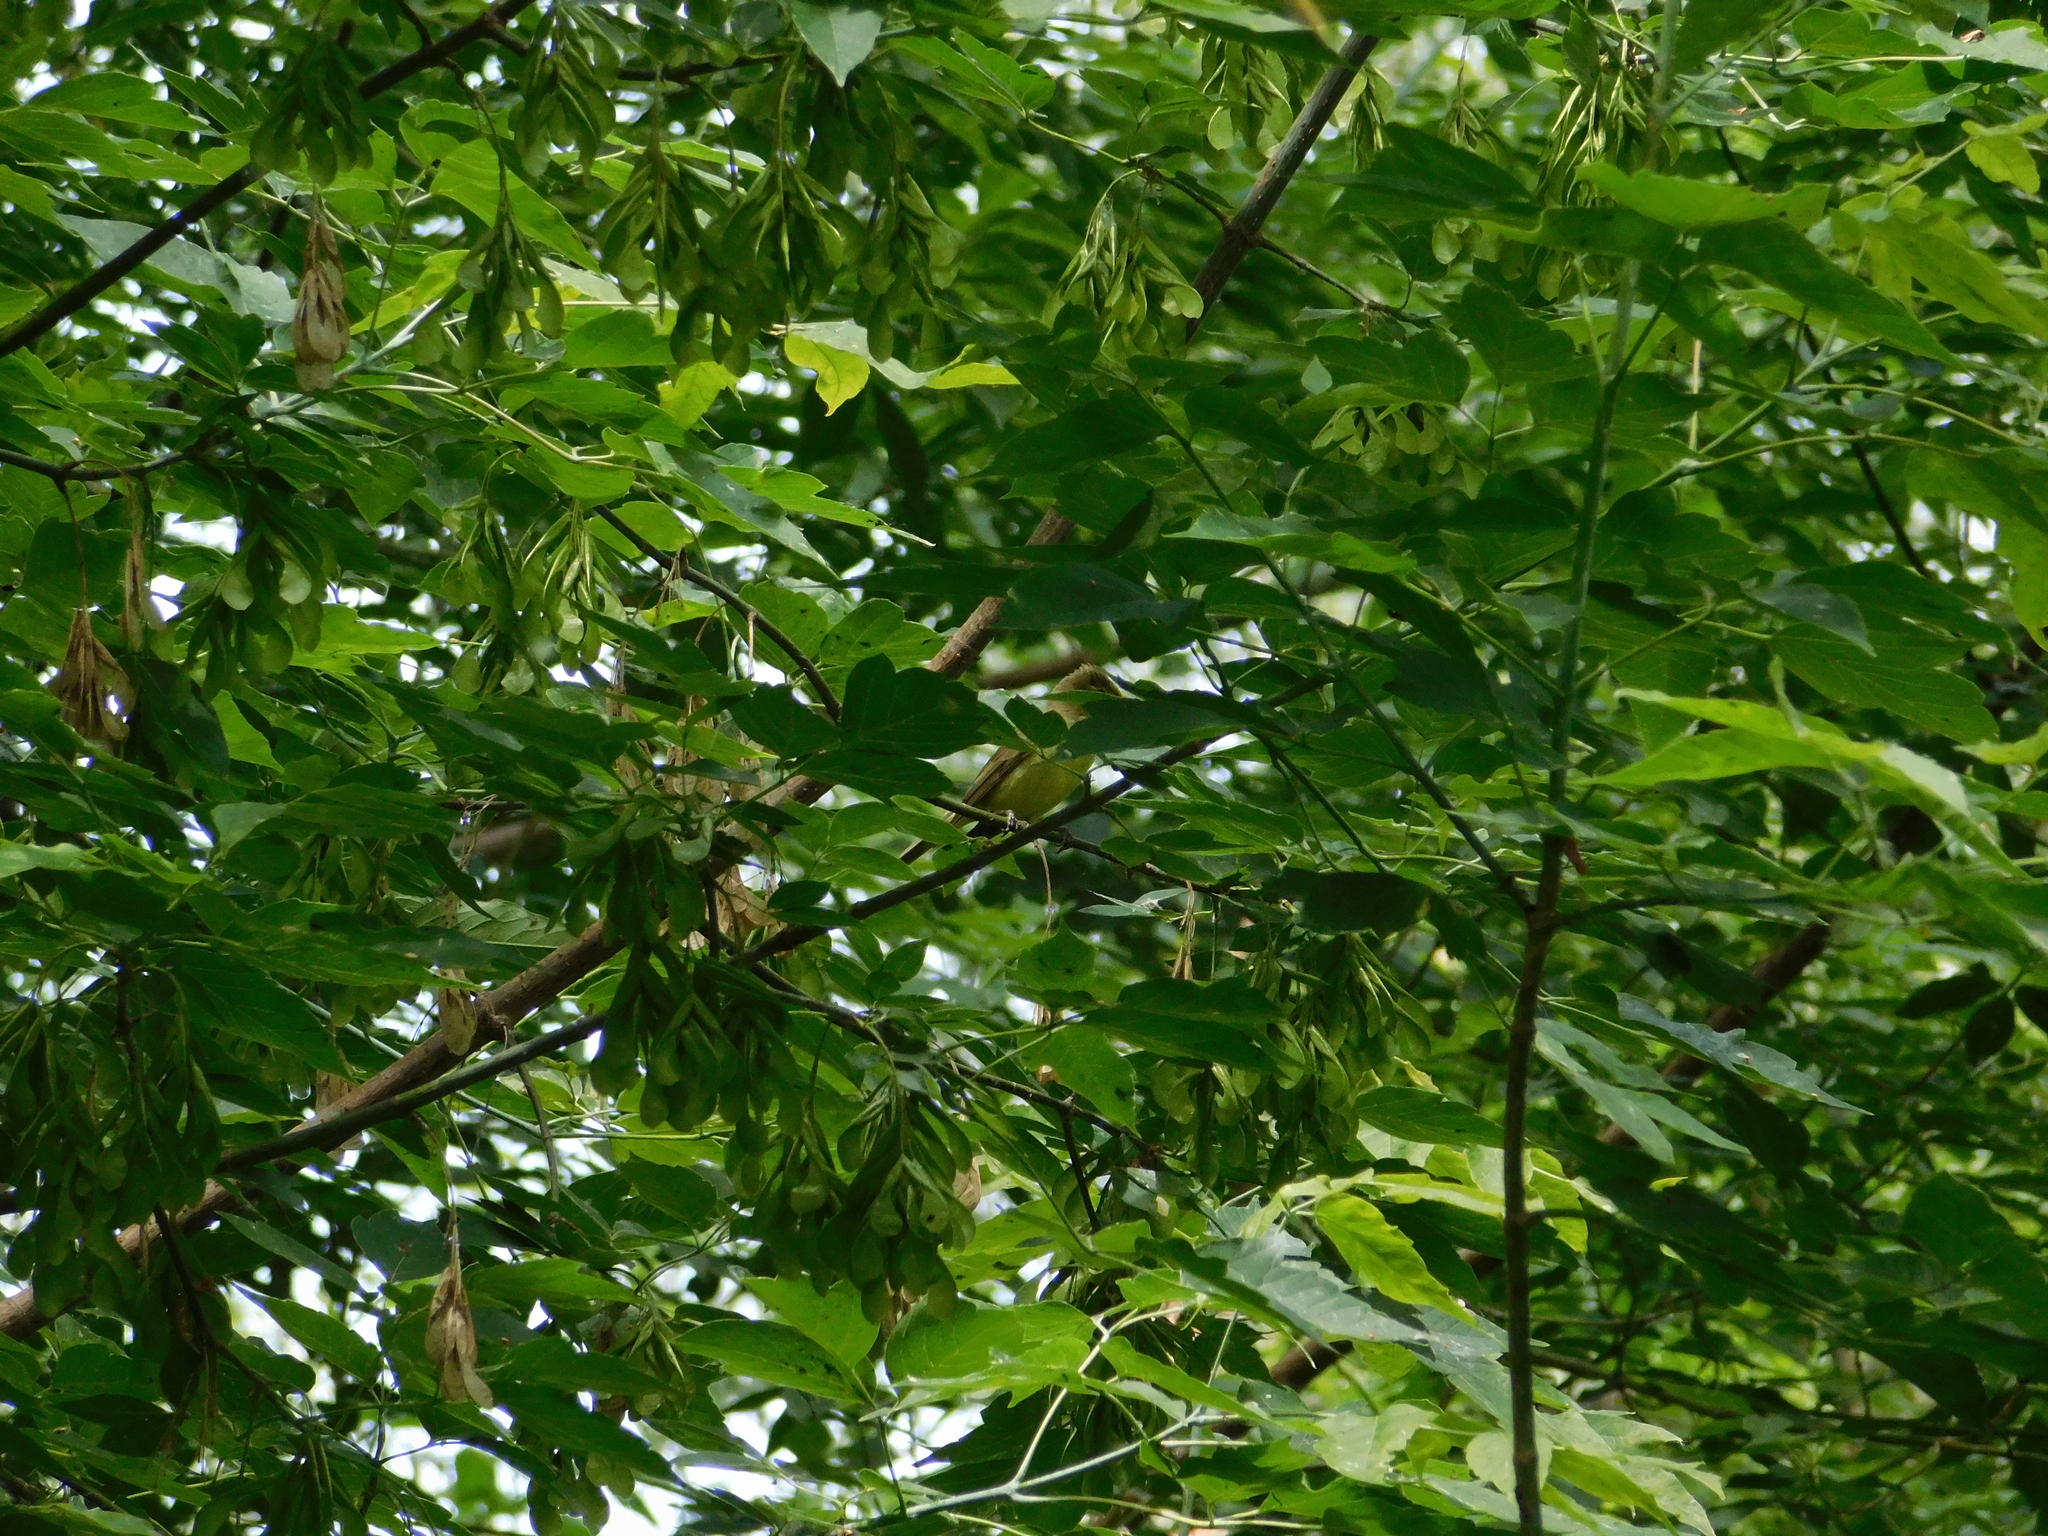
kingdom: Animalia
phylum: Chordata
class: Aves
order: Passeriformes
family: Acrocephalidae
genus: Hippolais
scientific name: Hippolais icterina
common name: Icterine warbler
